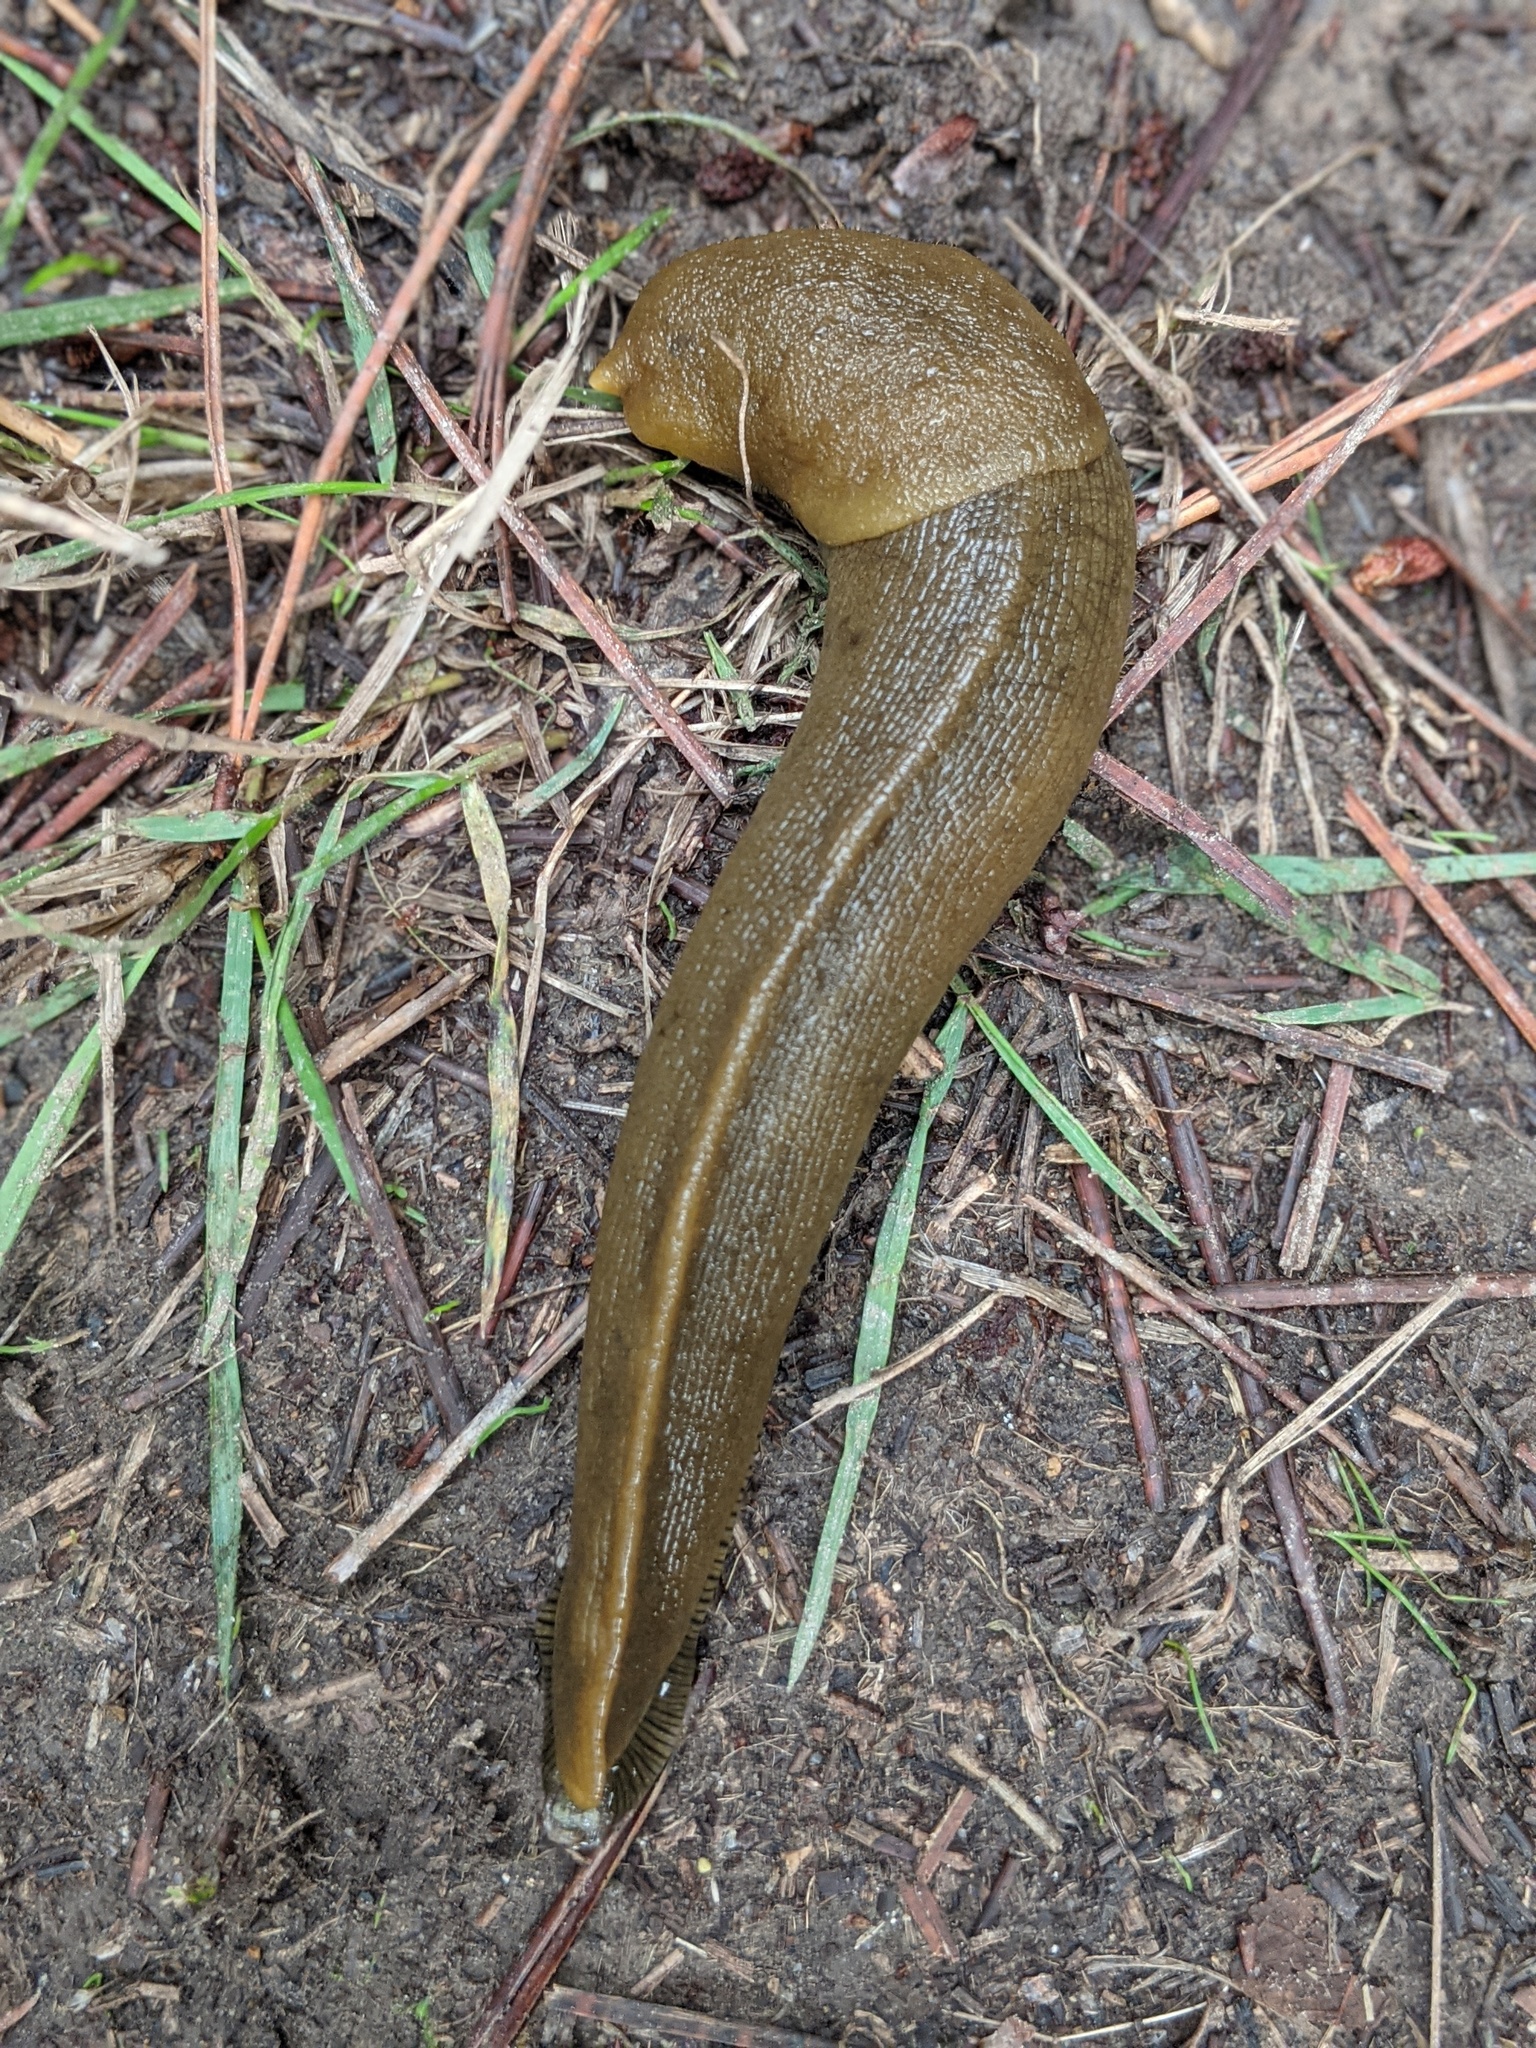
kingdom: Animalia
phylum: Mollusca
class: Gastropoda
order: Stylommatophora
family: Ariolimacidae
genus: Ariolimax
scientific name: Ariolimax buttoni
